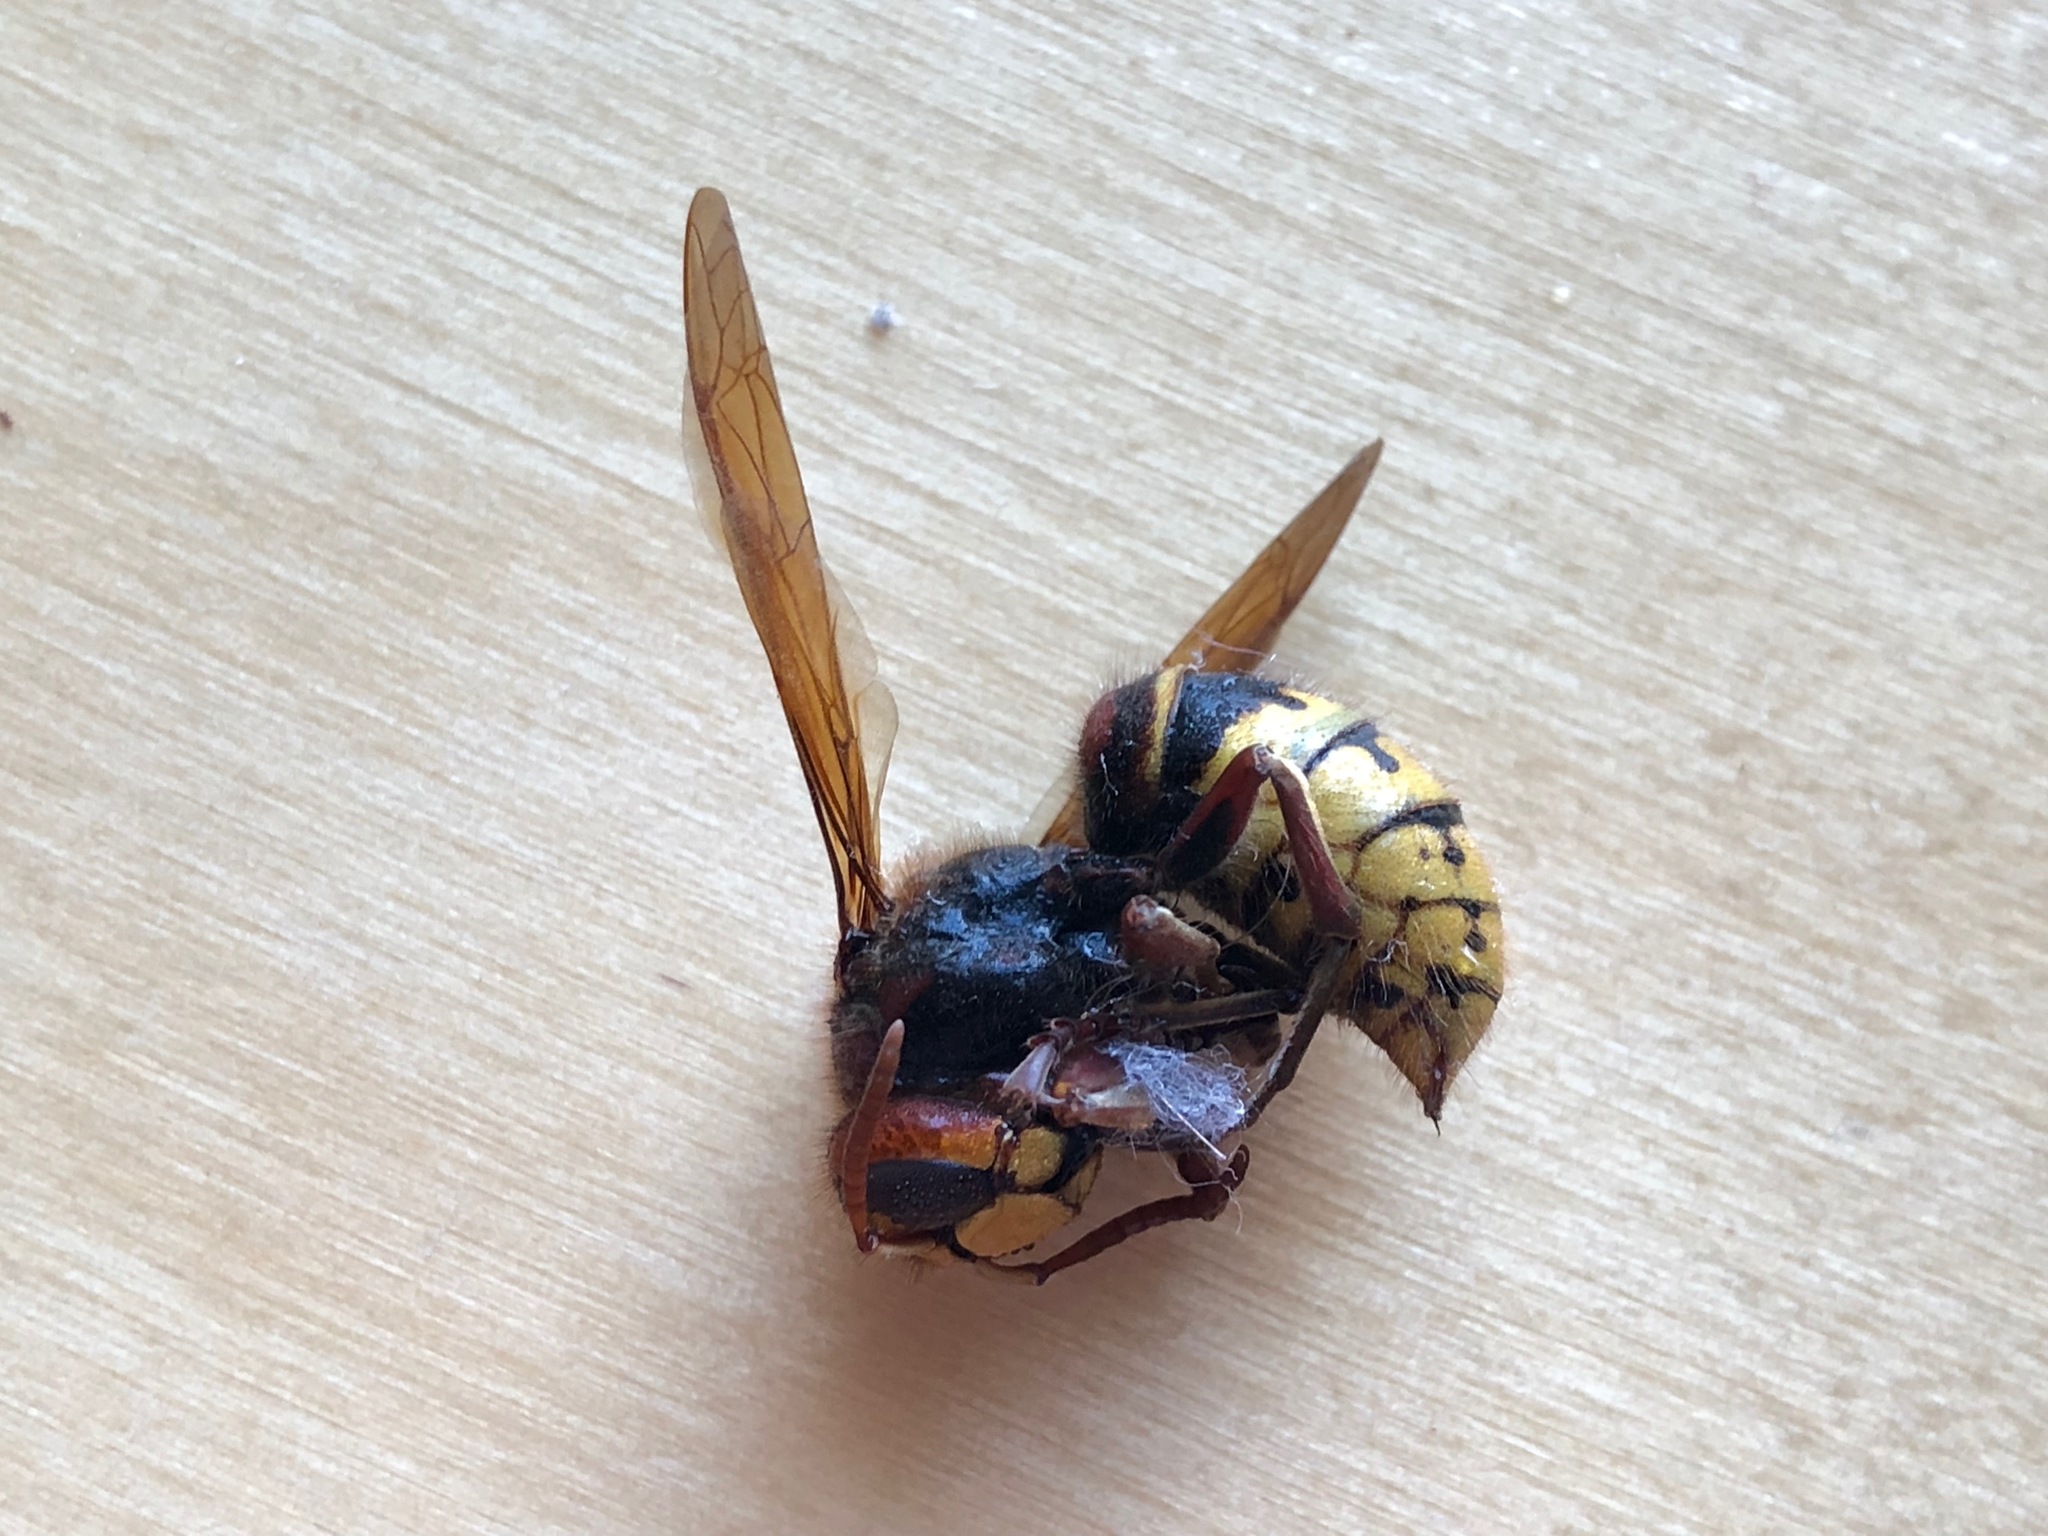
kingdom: Animalia
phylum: Arthropoda
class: Insecta
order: Hymenoptera
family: Vespidae
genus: Vespa
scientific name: Vespa crabro
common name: Hornet
